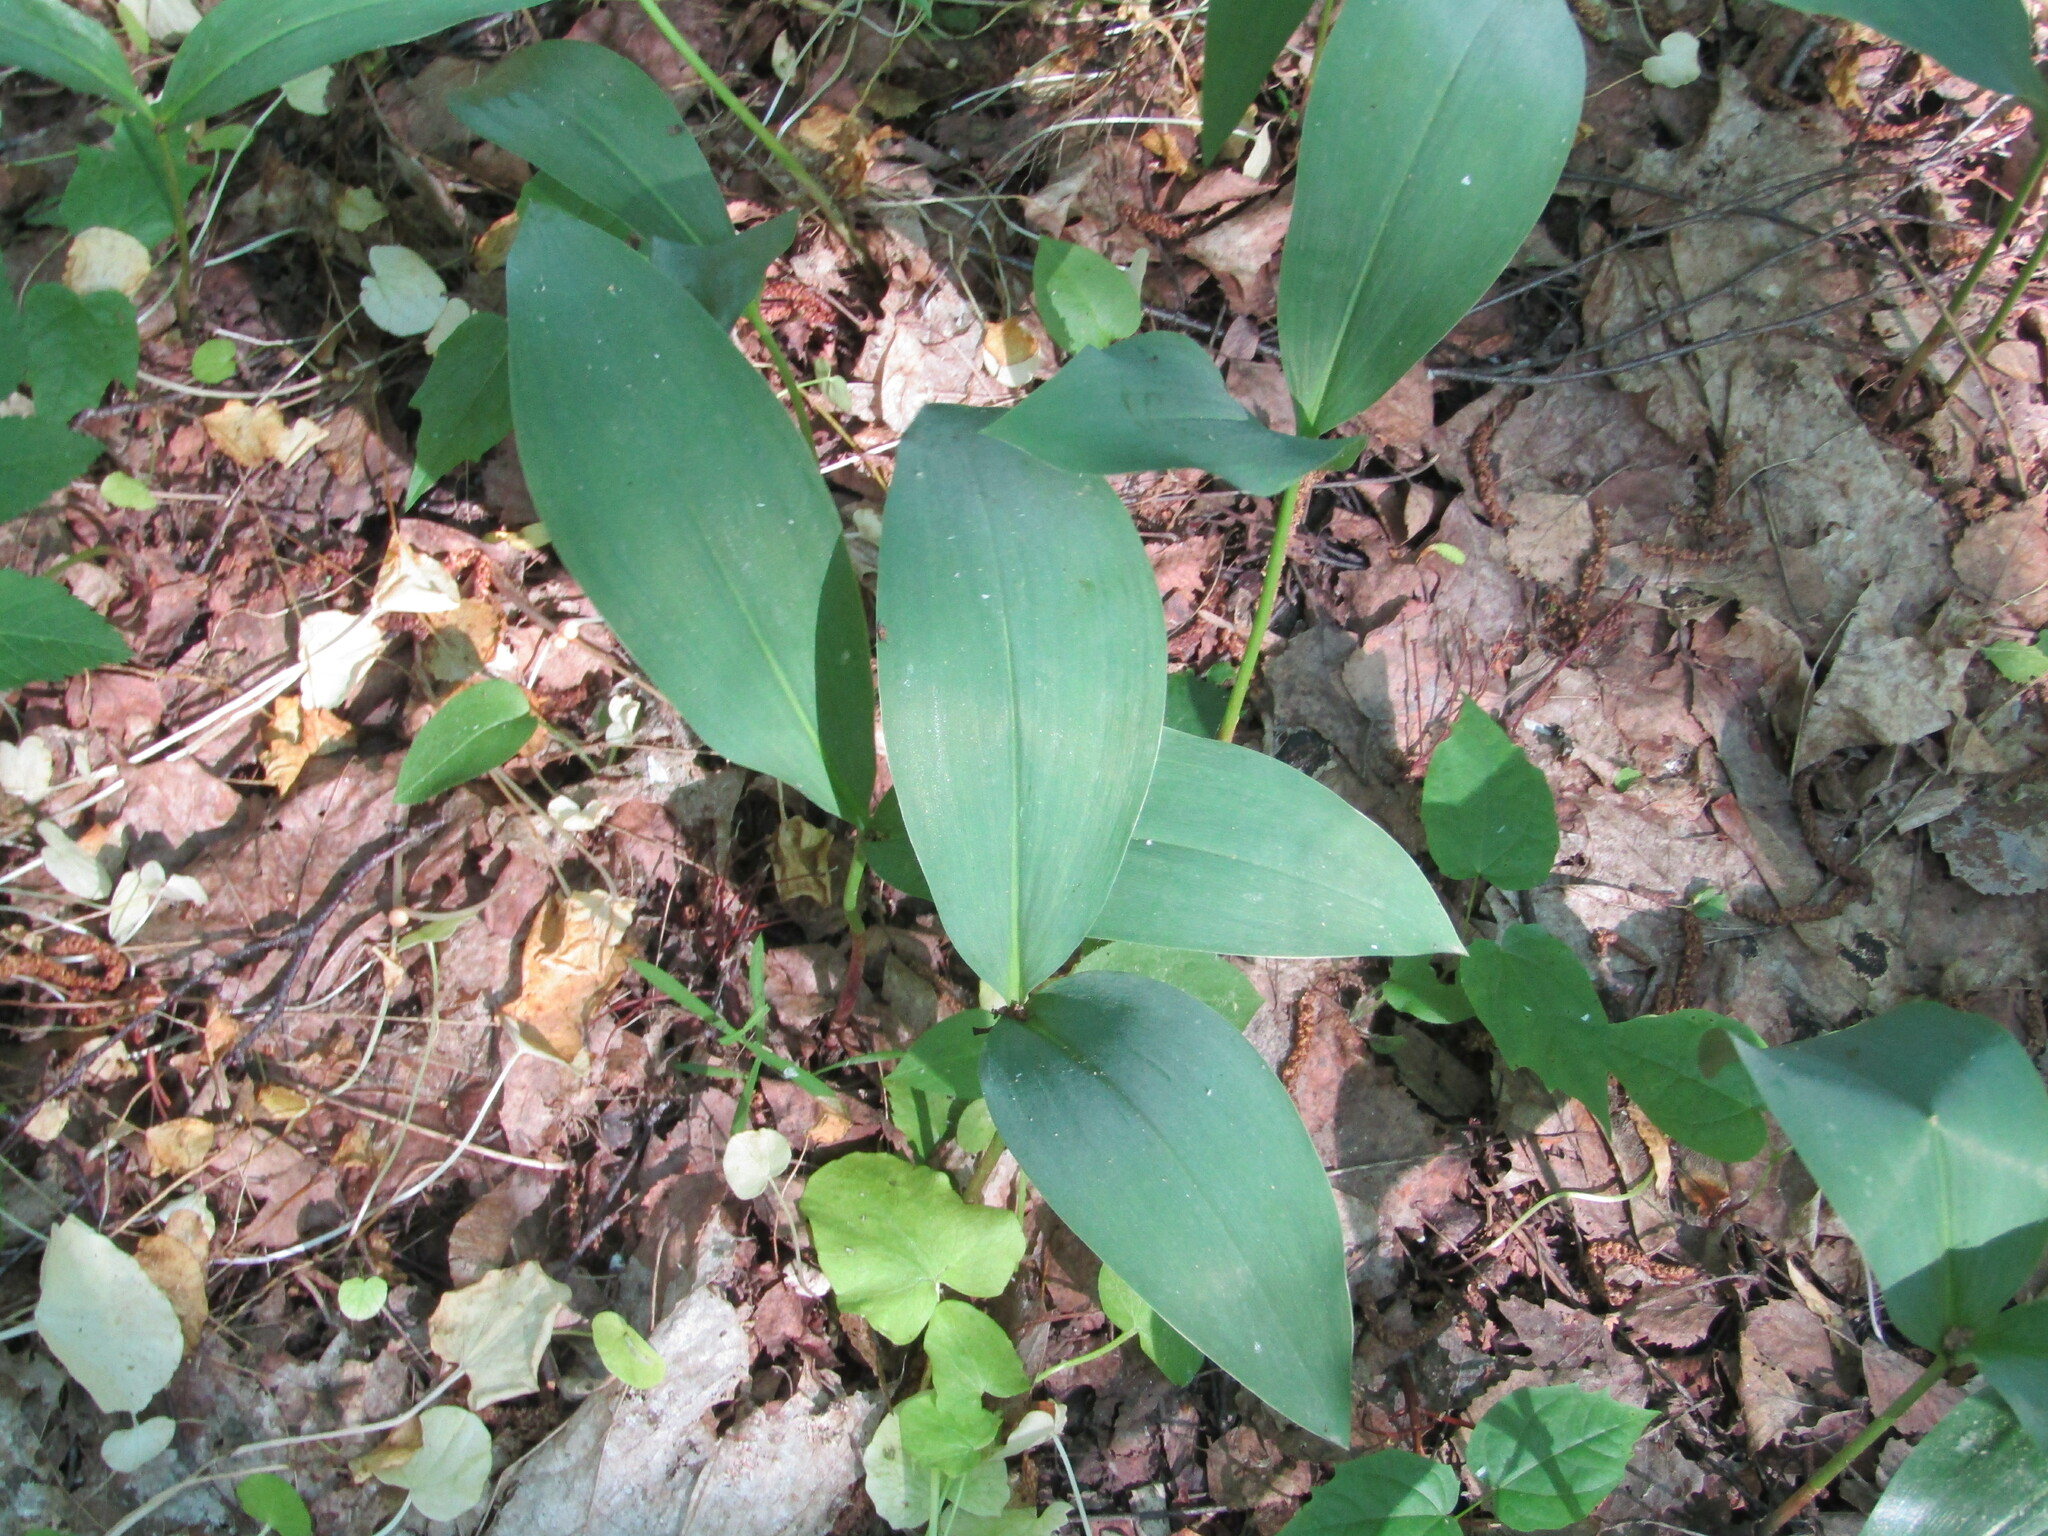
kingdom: Plantae
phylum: Tracheophyta
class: Liliopsida
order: Asparagales
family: Asparagaceae
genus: Convallaria
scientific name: Convallaria majalis
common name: Lily-of-the-valley
